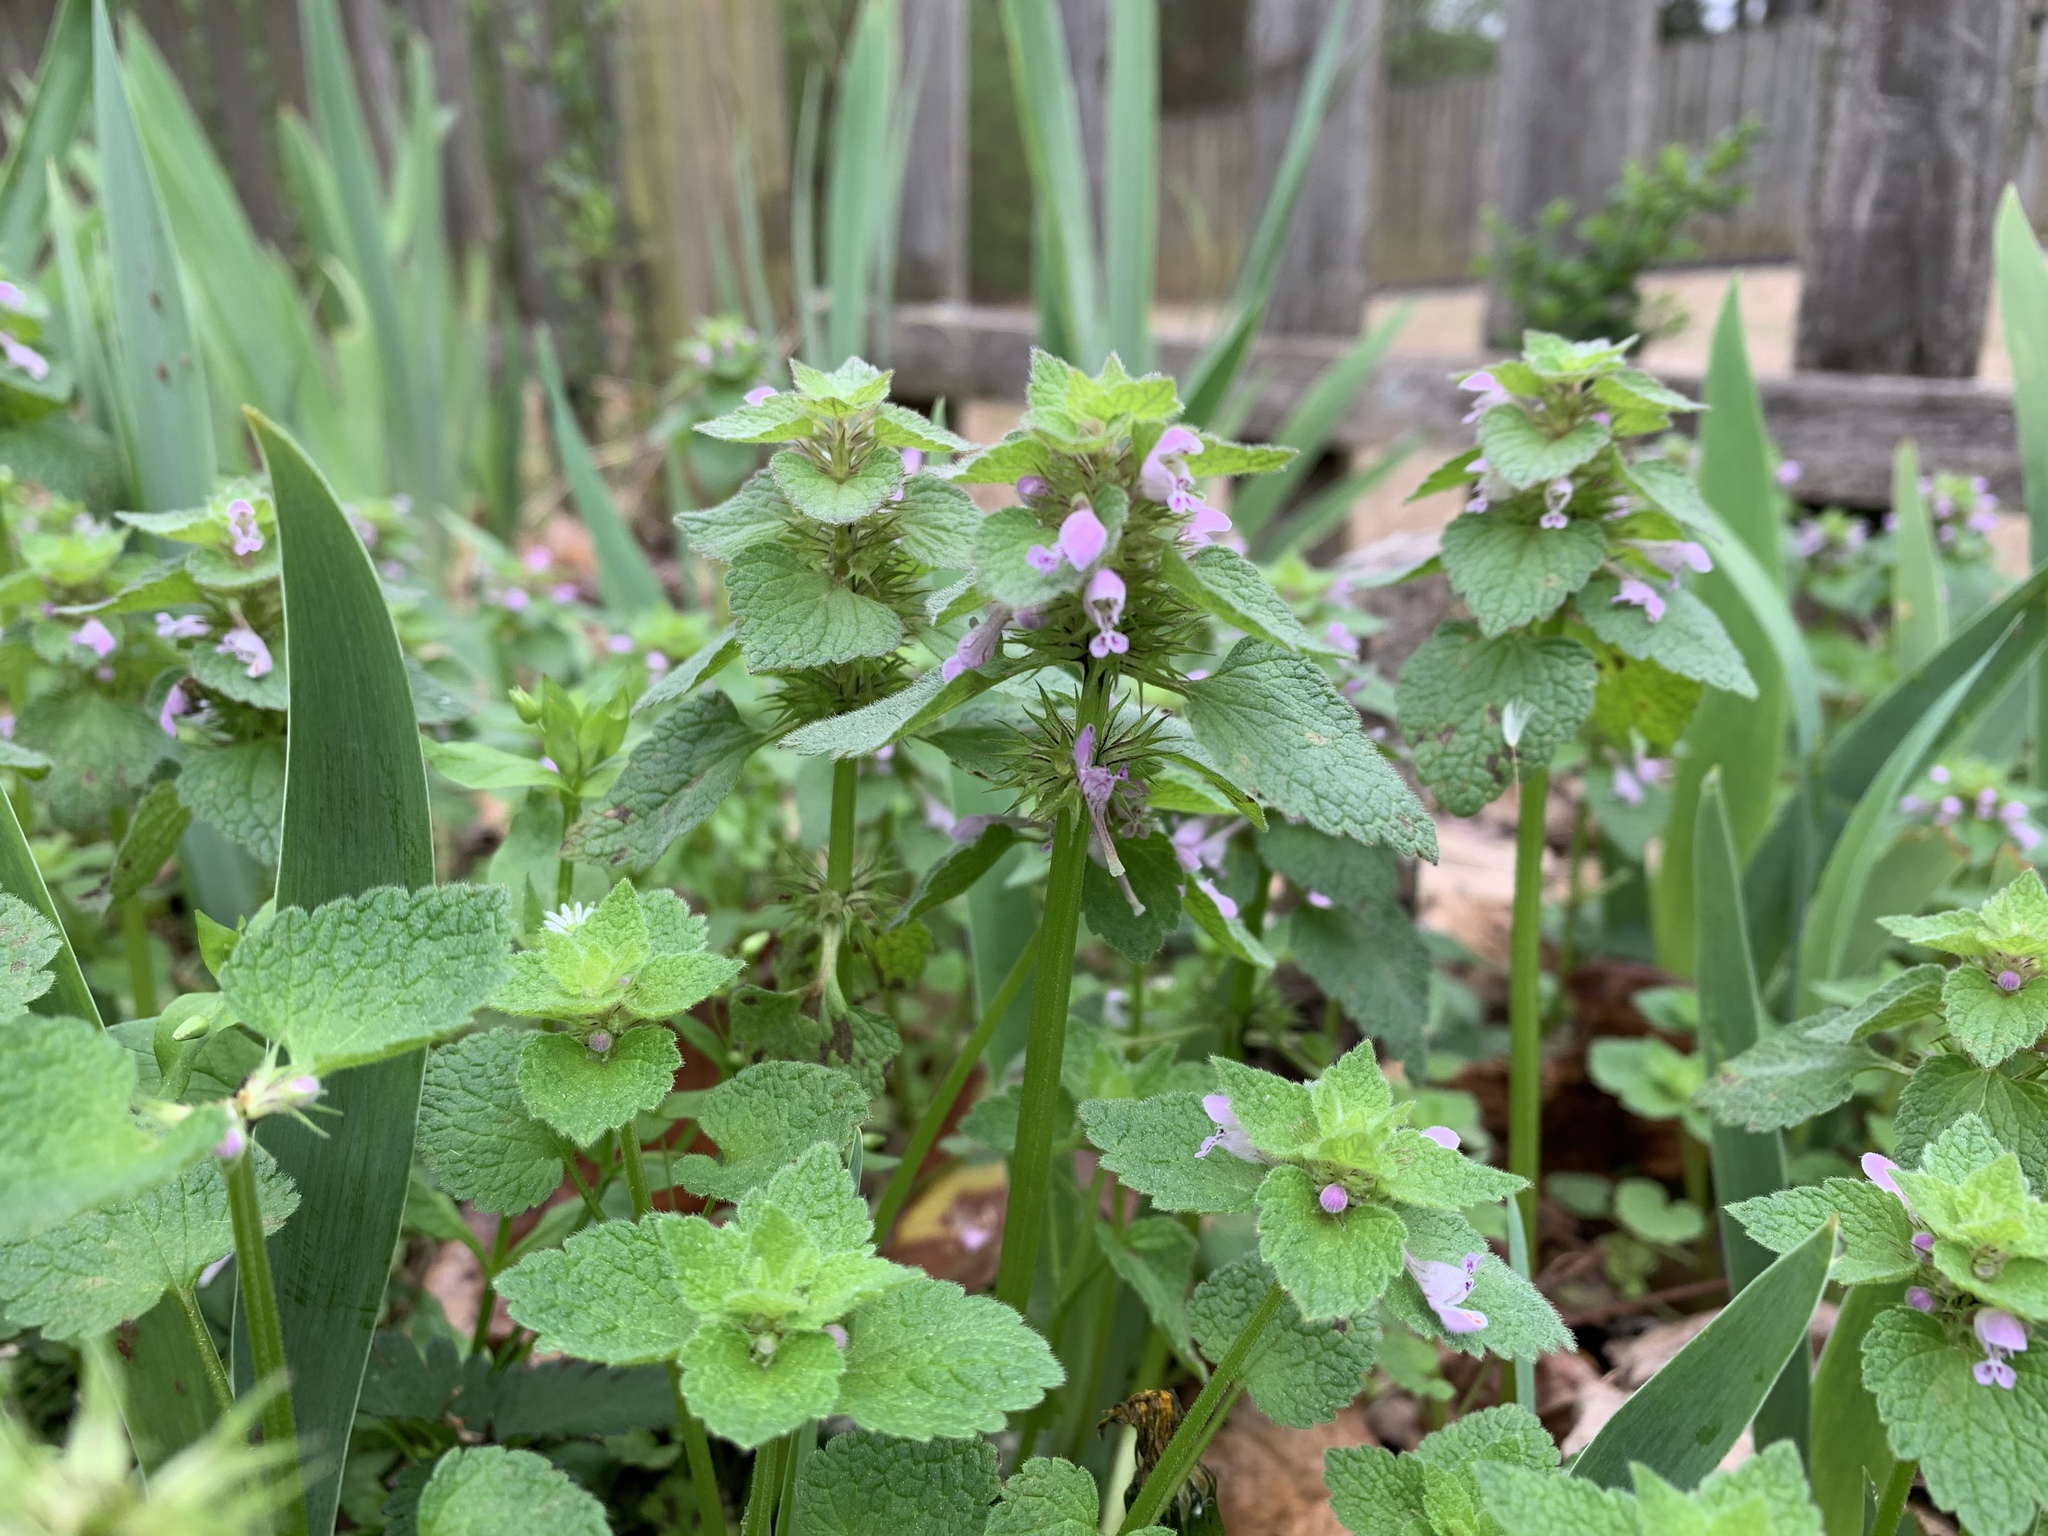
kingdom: Plantae
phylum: Tracheophyta
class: Magnoliopsida
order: Lamiales
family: Lamiaceae
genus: Lamium
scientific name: Lamium purpureum
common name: Red dead-nettle
